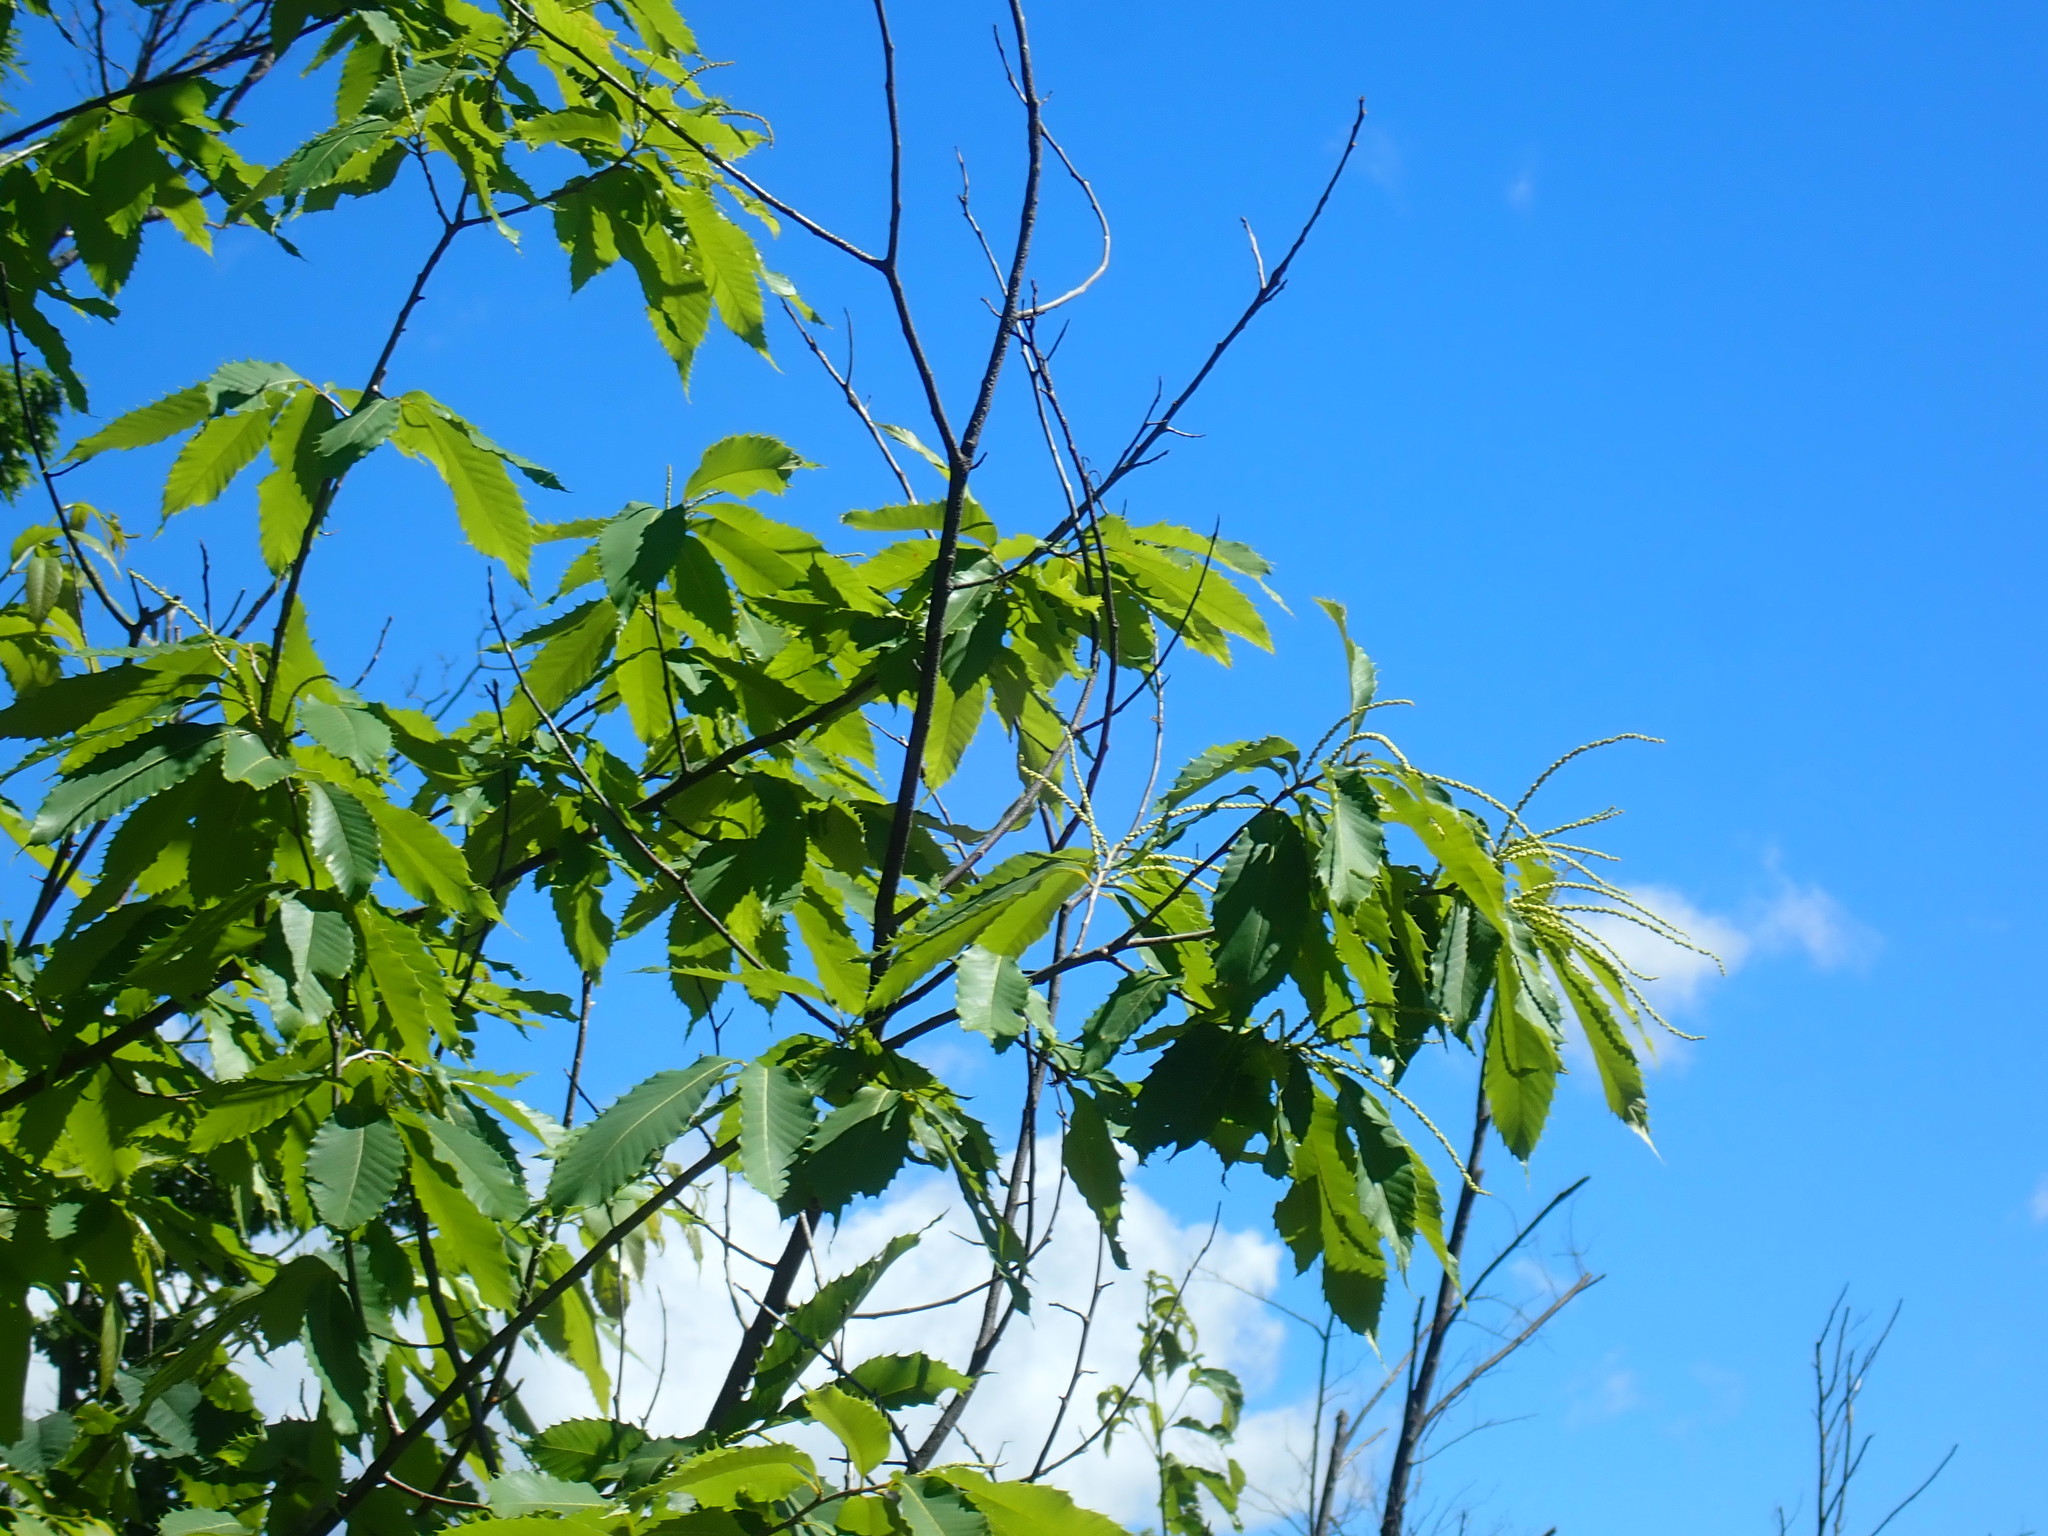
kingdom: Plantae
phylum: Tracheophyta
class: Magnoliopsida
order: Fagales
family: Fagaceae
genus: Castanea
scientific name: Castanea dentata
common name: American chestnut
